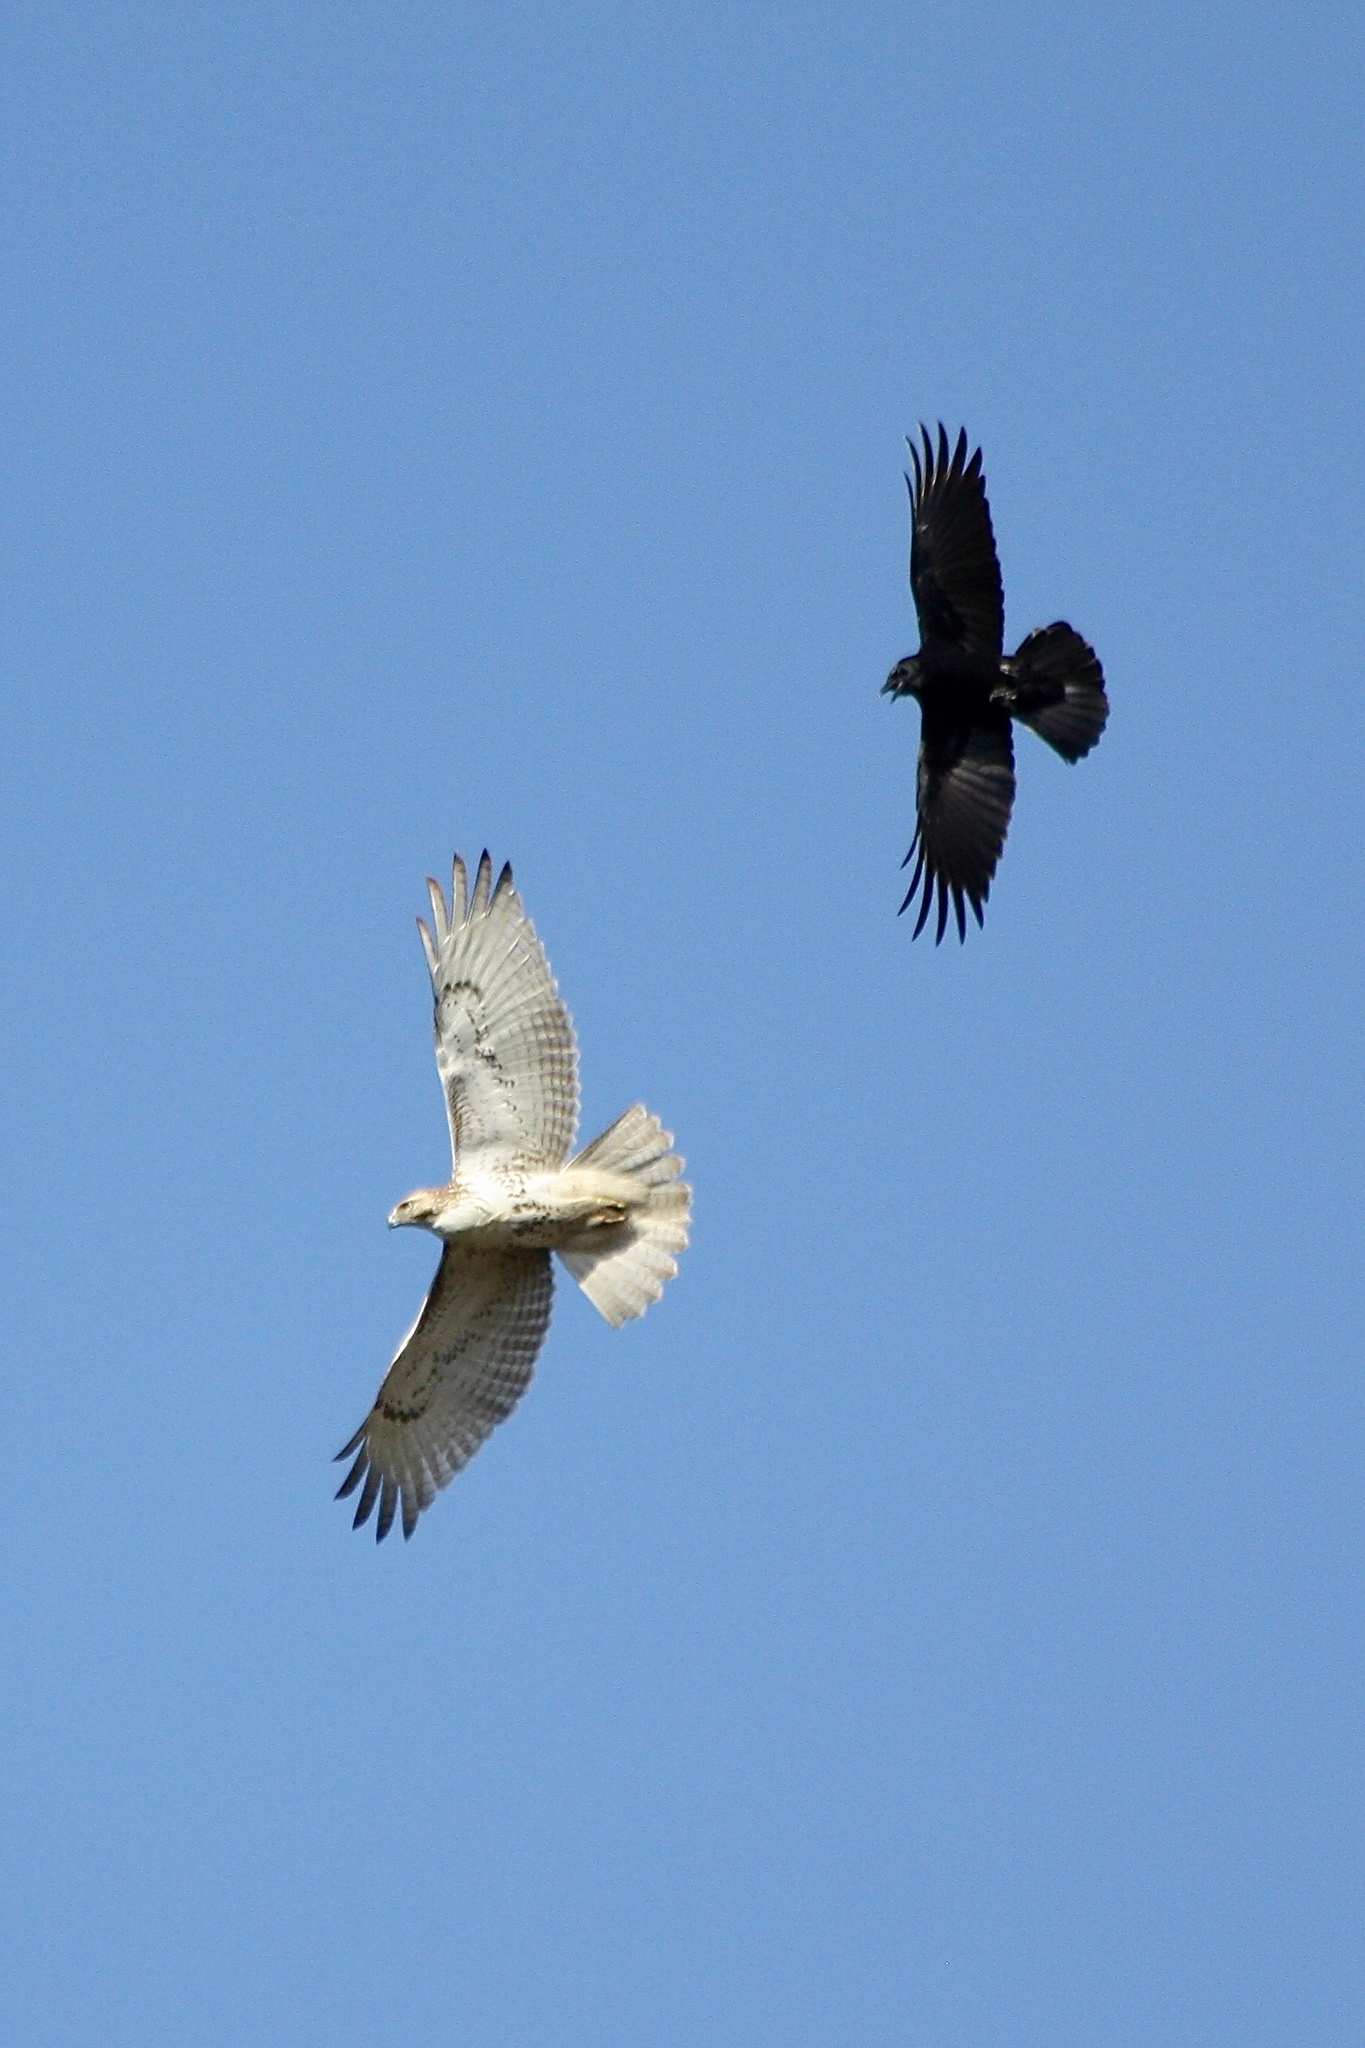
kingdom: Animalia
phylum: Chordata
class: Aves
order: Passeriformes
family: Corvidae
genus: Corvus
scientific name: Corvus brachyrhynchos
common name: American crow
